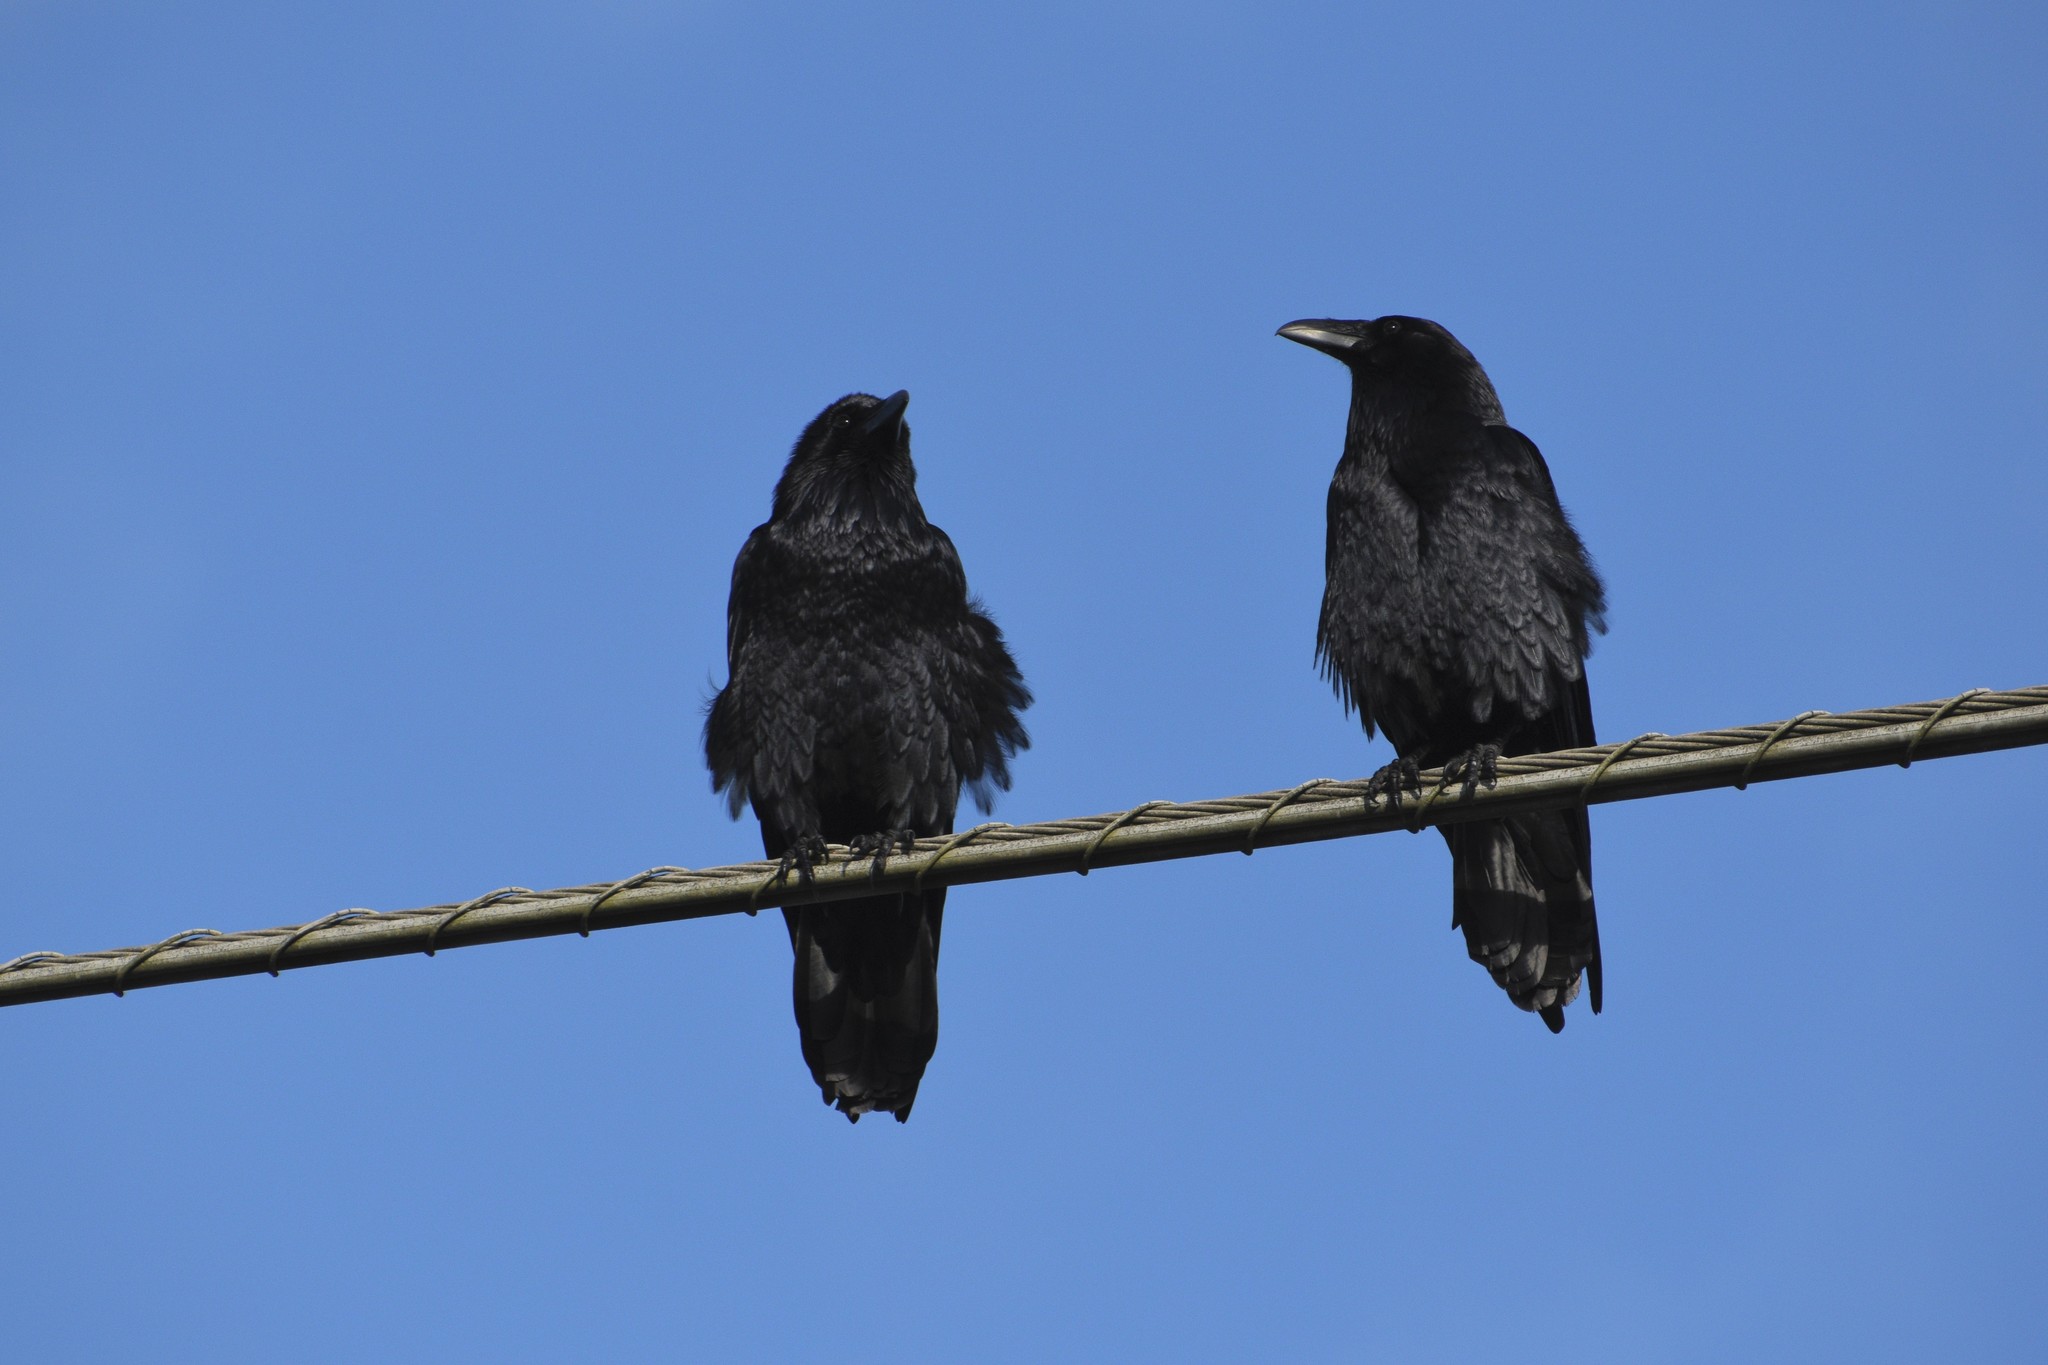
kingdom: Animalia
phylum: Chordata
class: Aves
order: Passeriformes
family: Corvidae
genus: Corvus
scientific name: Corvus corax
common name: Common raven
